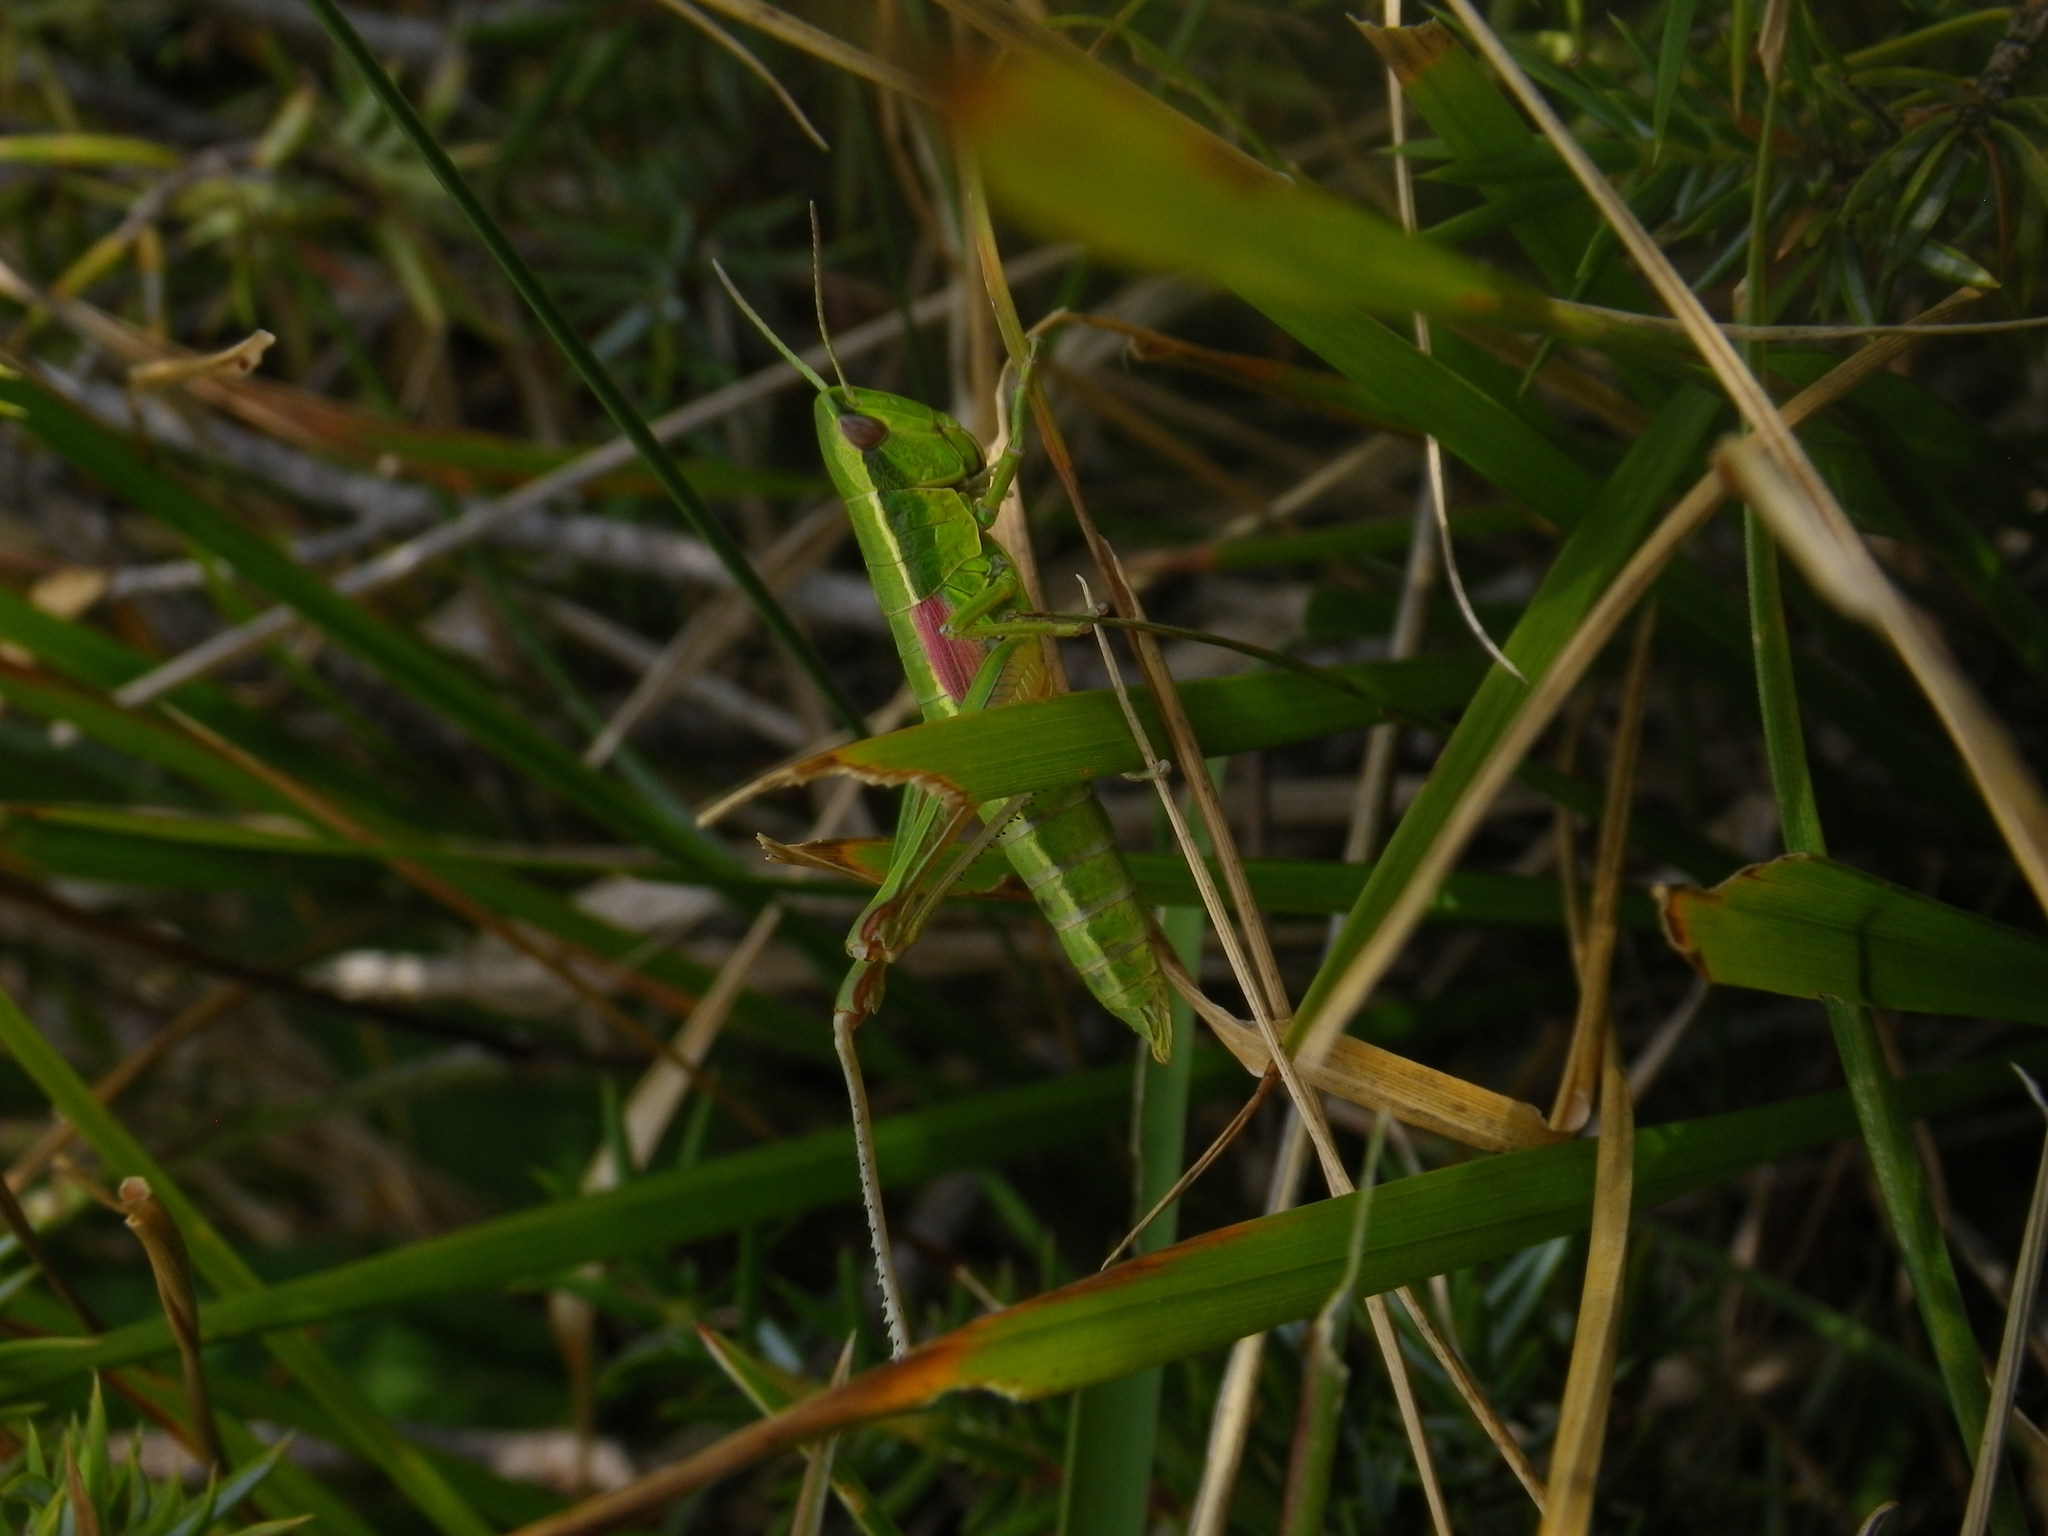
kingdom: Animalia
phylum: Arthropoda
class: Insecta
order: Orthoptera
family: Acrididae
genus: Euthystira
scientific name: Euthystira brachyptera
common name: Small gold grasshopper
